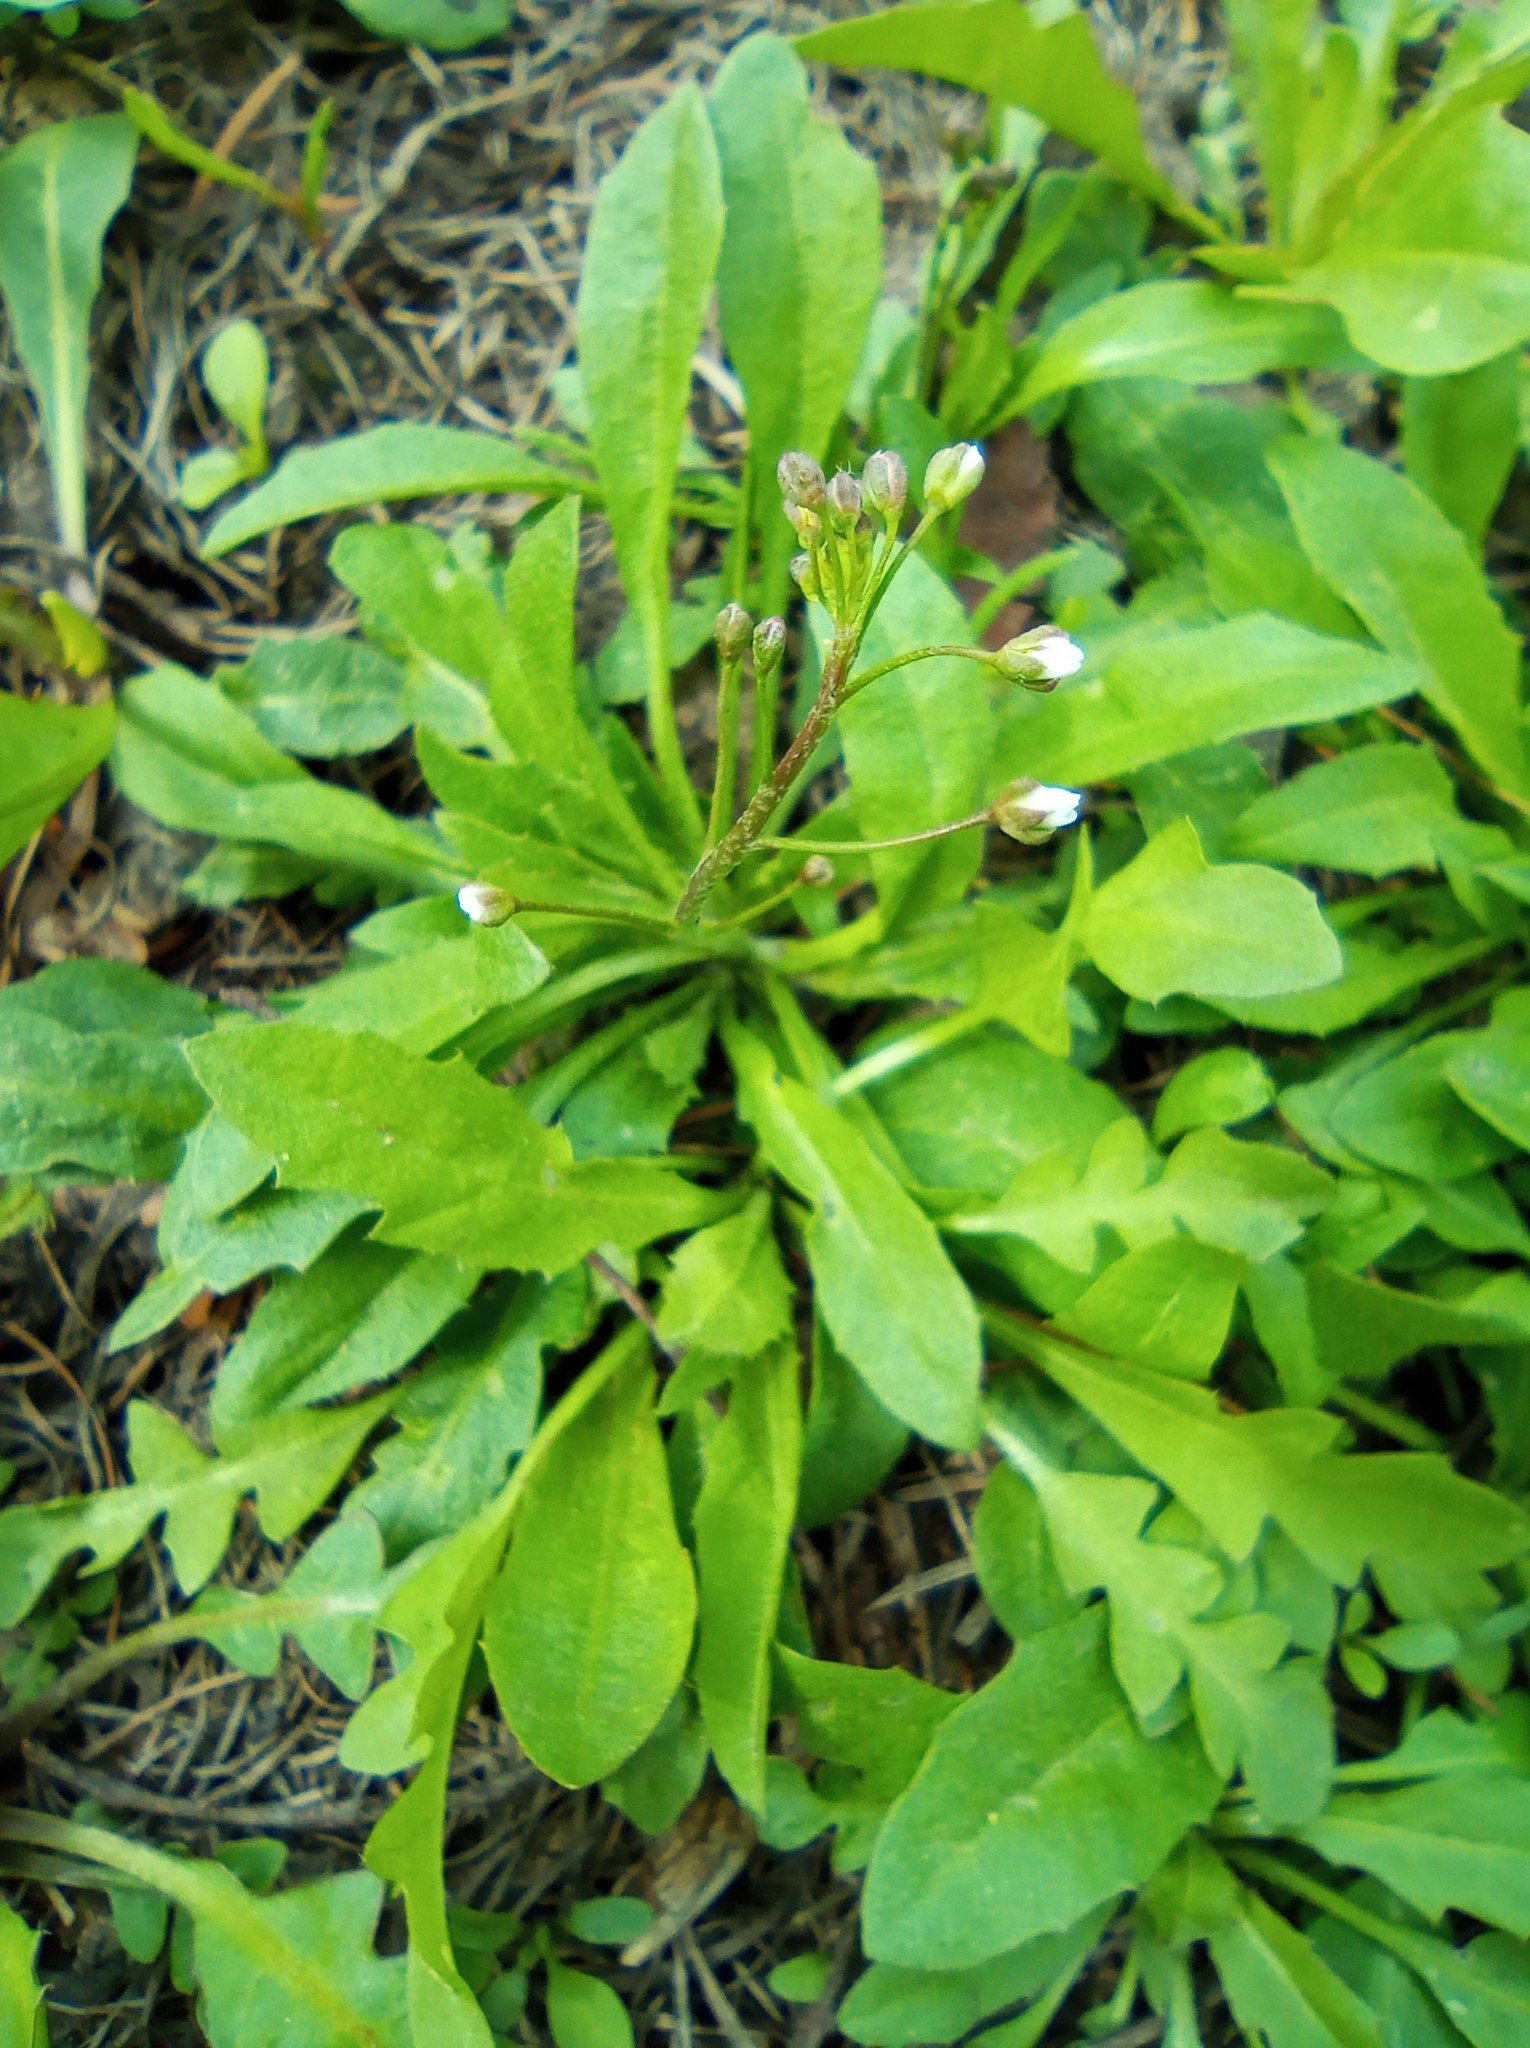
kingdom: Plantae
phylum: Tracheophyta
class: Magnoliopsida
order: Brassicales
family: Brassicaceae
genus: Capsella
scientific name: Capsella bursa-pastoris
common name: Shepherd's purse
